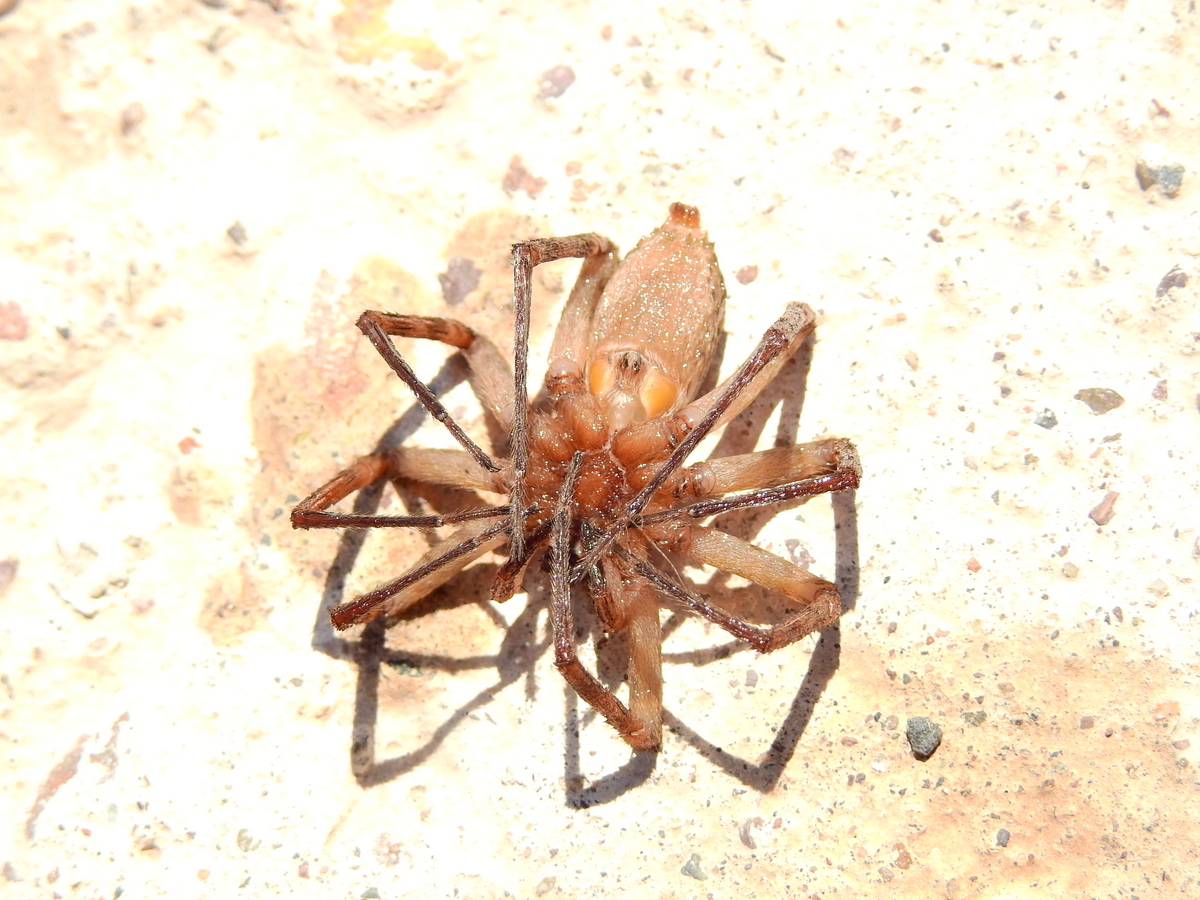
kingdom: Animalia
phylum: Arthropoda
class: Arachnida
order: Araneae
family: Xenoctenidae
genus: Xenoctenus
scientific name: Xenoctenus unguiculatus
